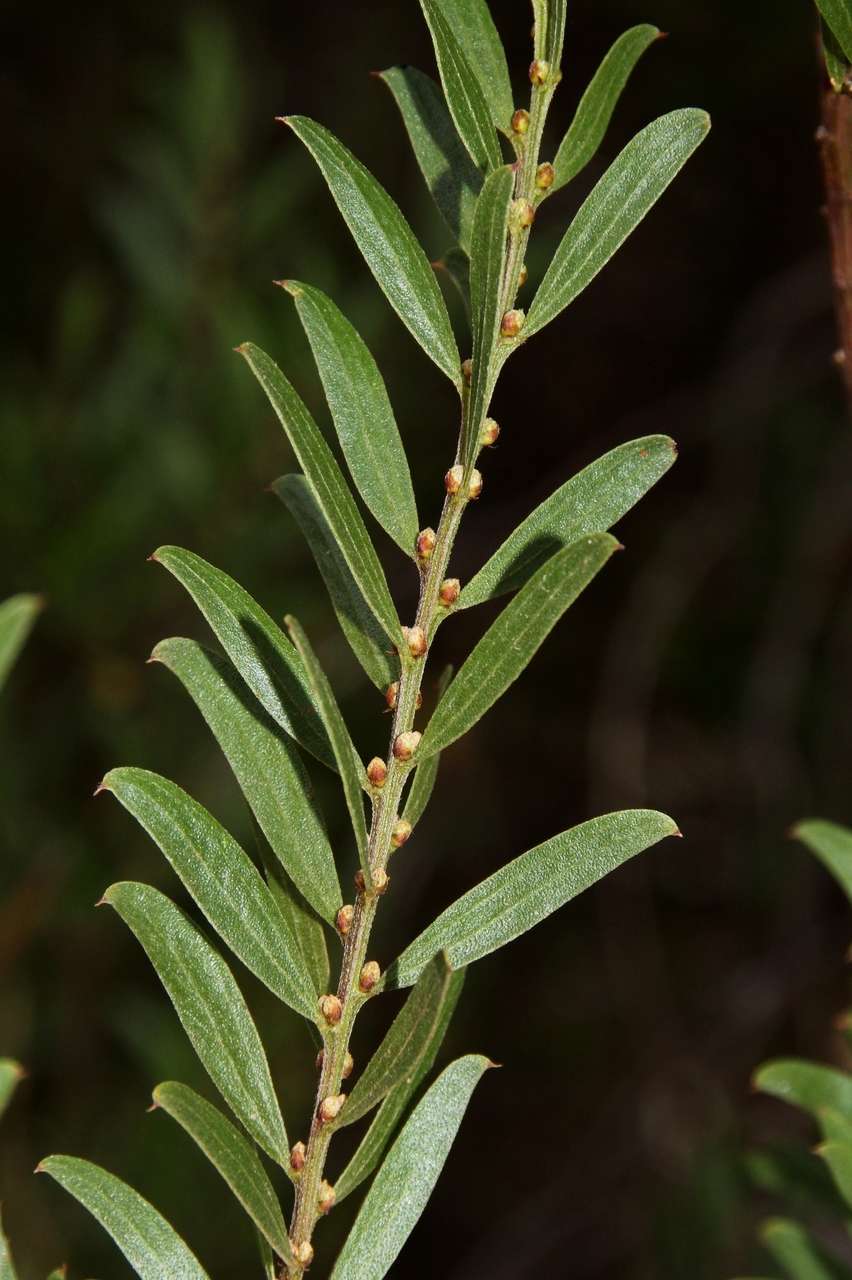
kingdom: Plantae
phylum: Tracheophyta
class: Magnoliopsida
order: Fabales
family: Fabaceae
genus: Acacia
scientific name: Acacia rostriformis
